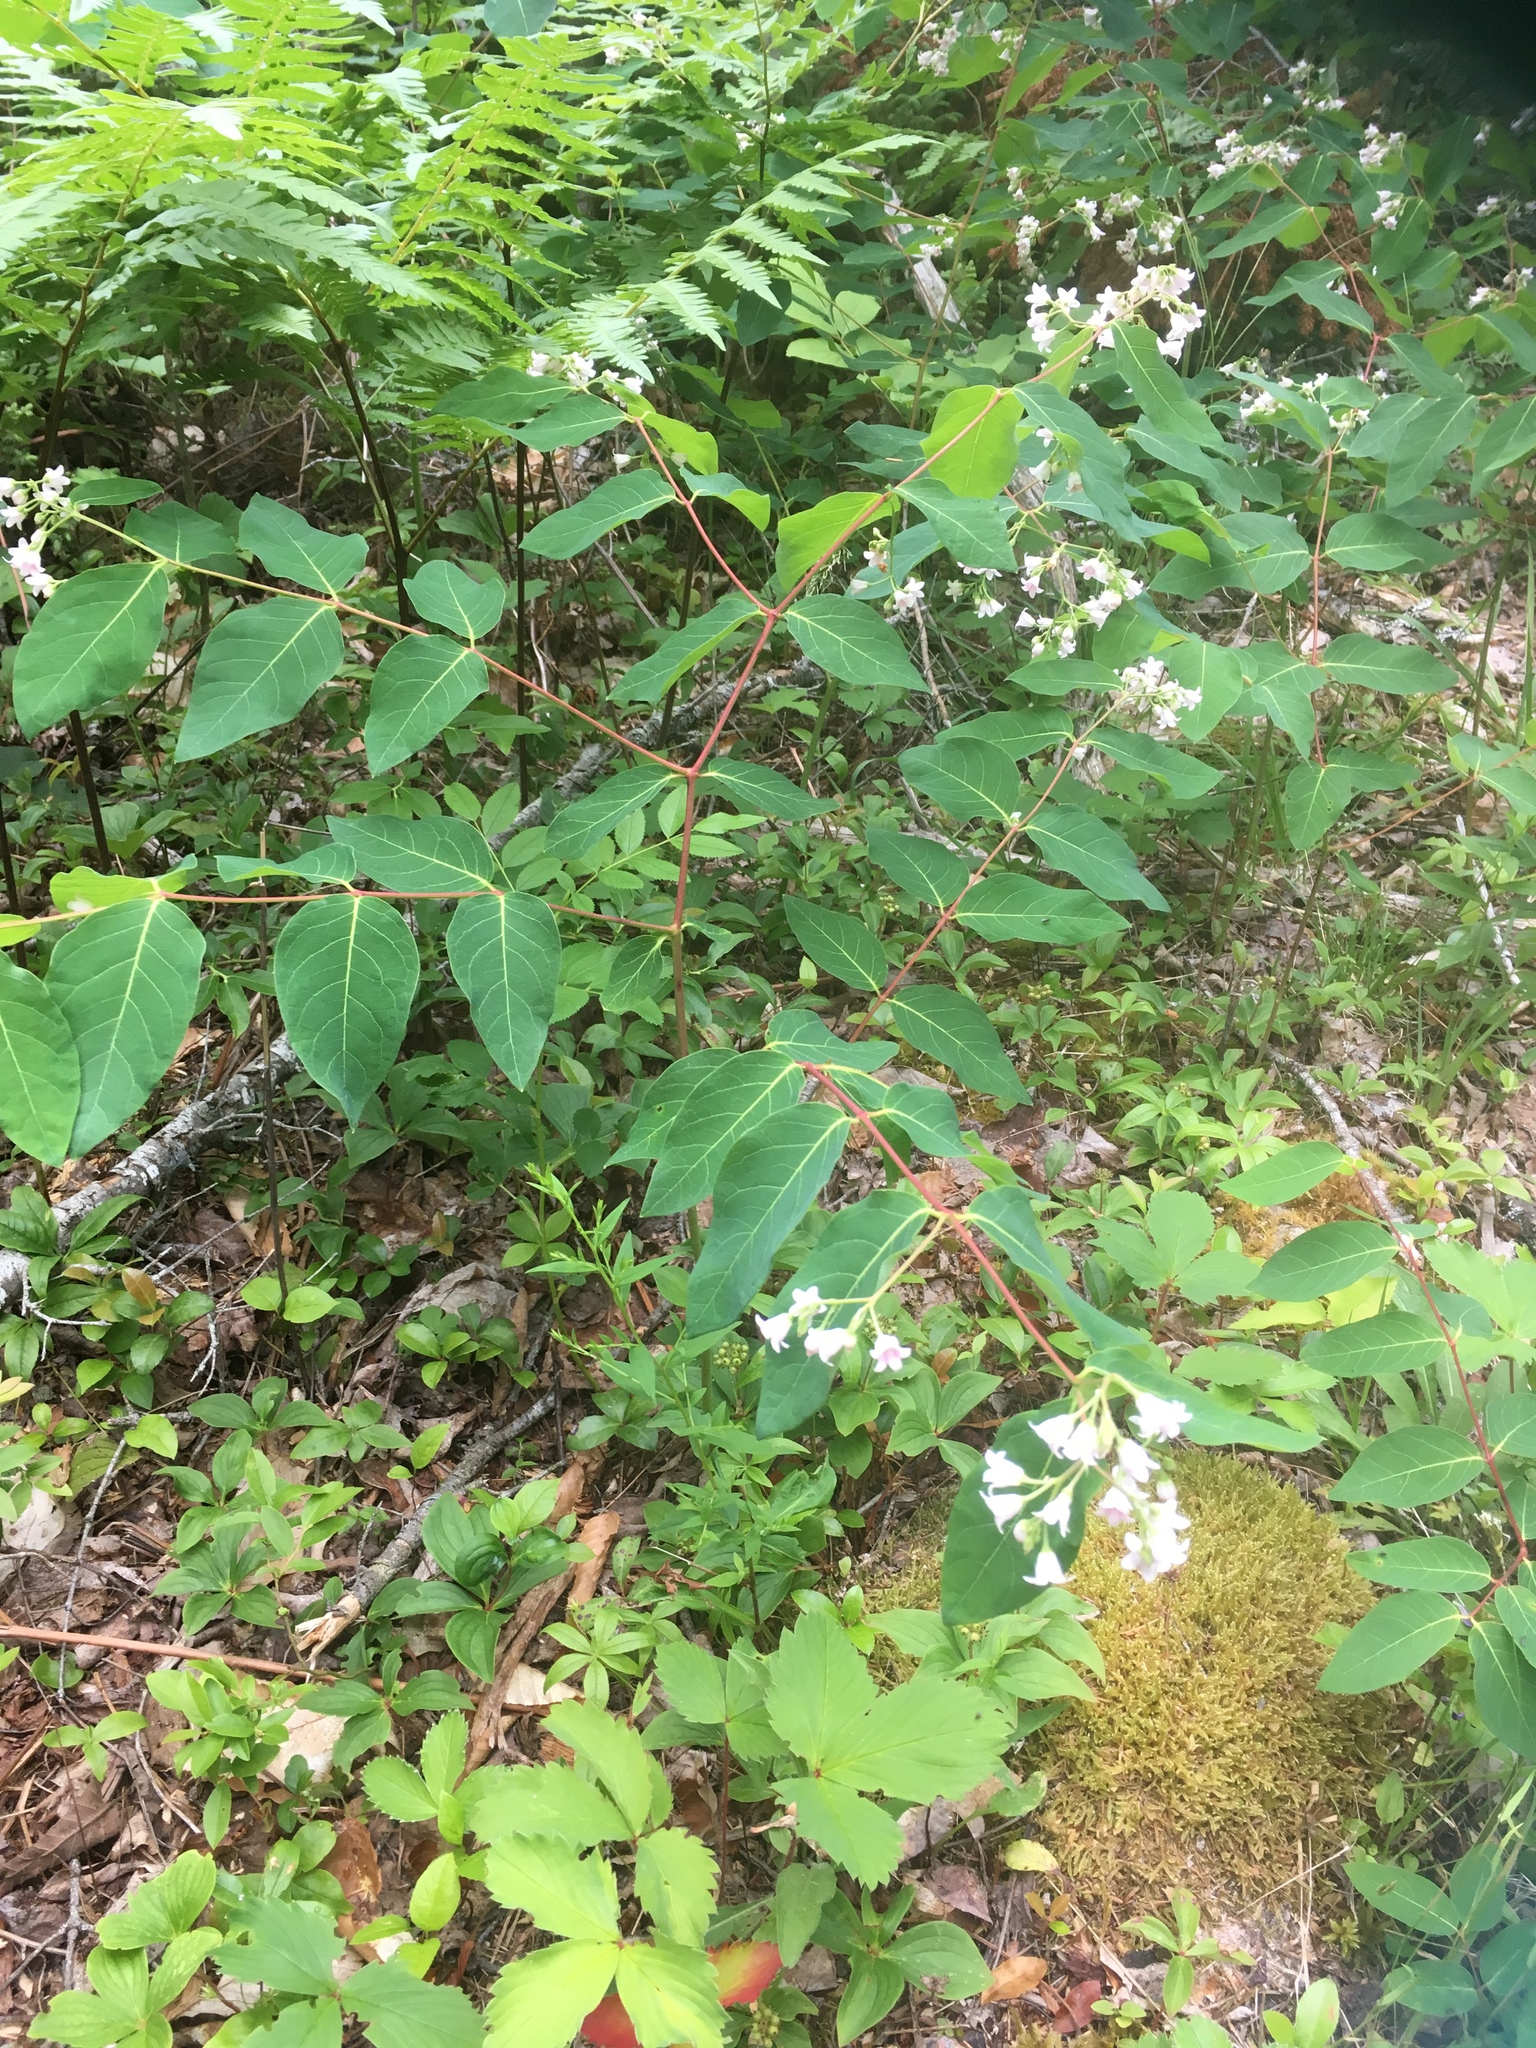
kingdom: Plantae
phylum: Tracheophyta
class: Magnoliopsida
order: Gentianales
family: Apocynaceae
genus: Apocynum
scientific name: Apocynum androsaemifolium
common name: Spreading dogbane
